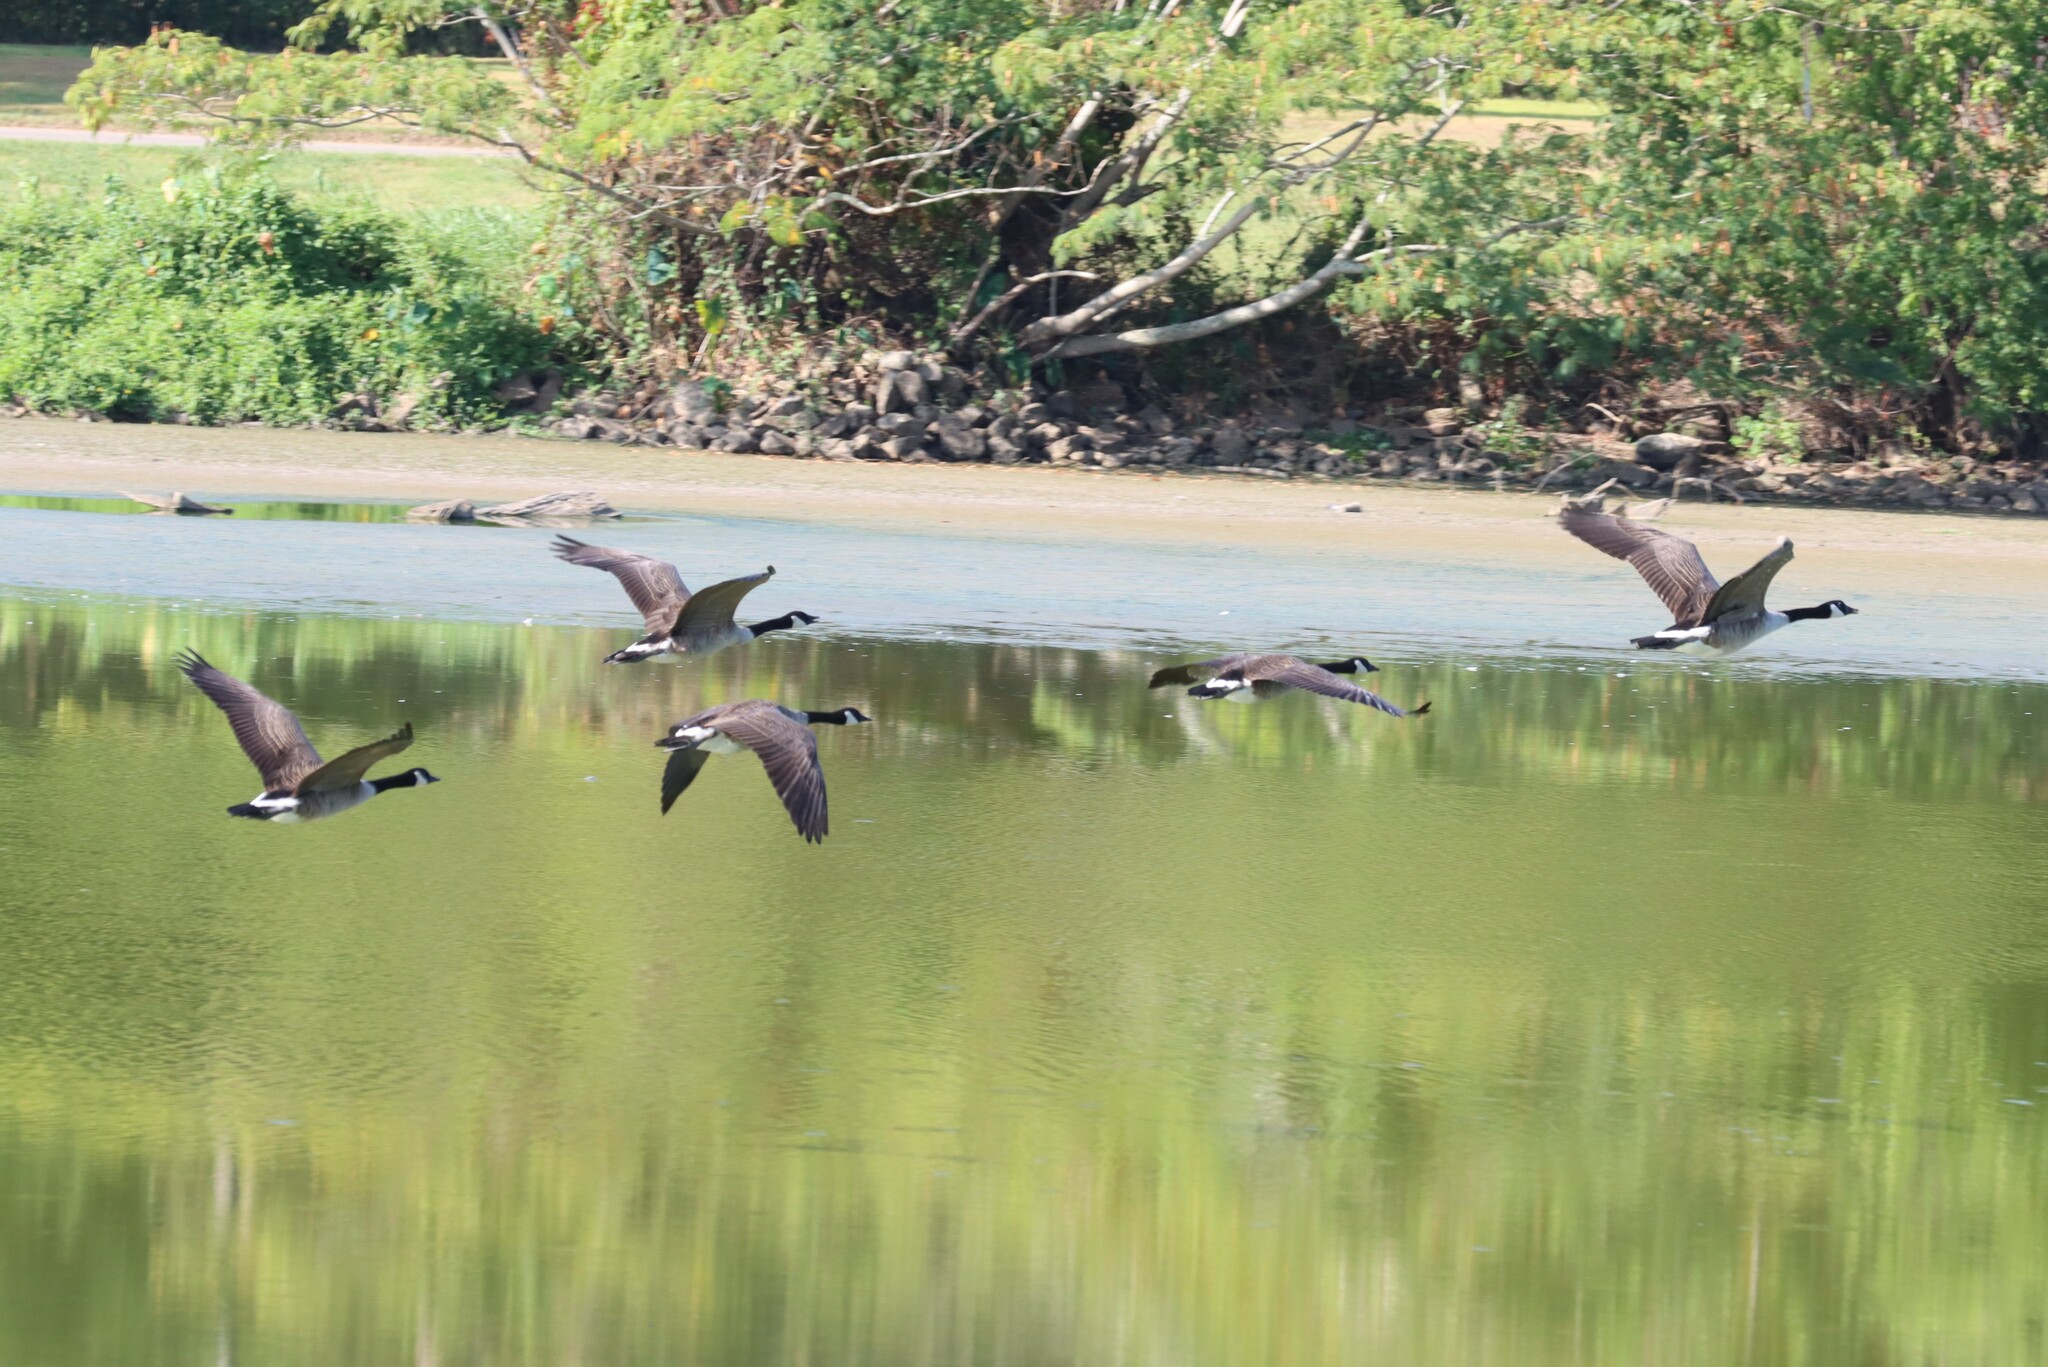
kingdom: Animalia
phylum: Chordata
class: Aves
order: Anseriformes
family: Anatidae
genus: Branta
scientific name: Branta canadensis
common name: Canada goose
